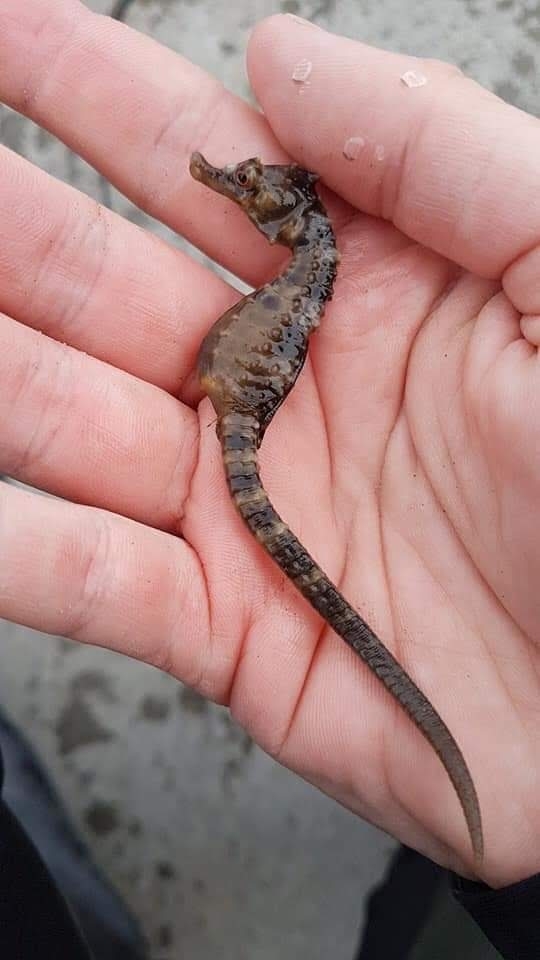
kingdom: Animalia
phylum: Chordata
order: Syngnathiformes
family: Syngnathidae
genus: Hippocampus
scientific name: Hippocampus abdominalis
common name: Big-belly seahorse
